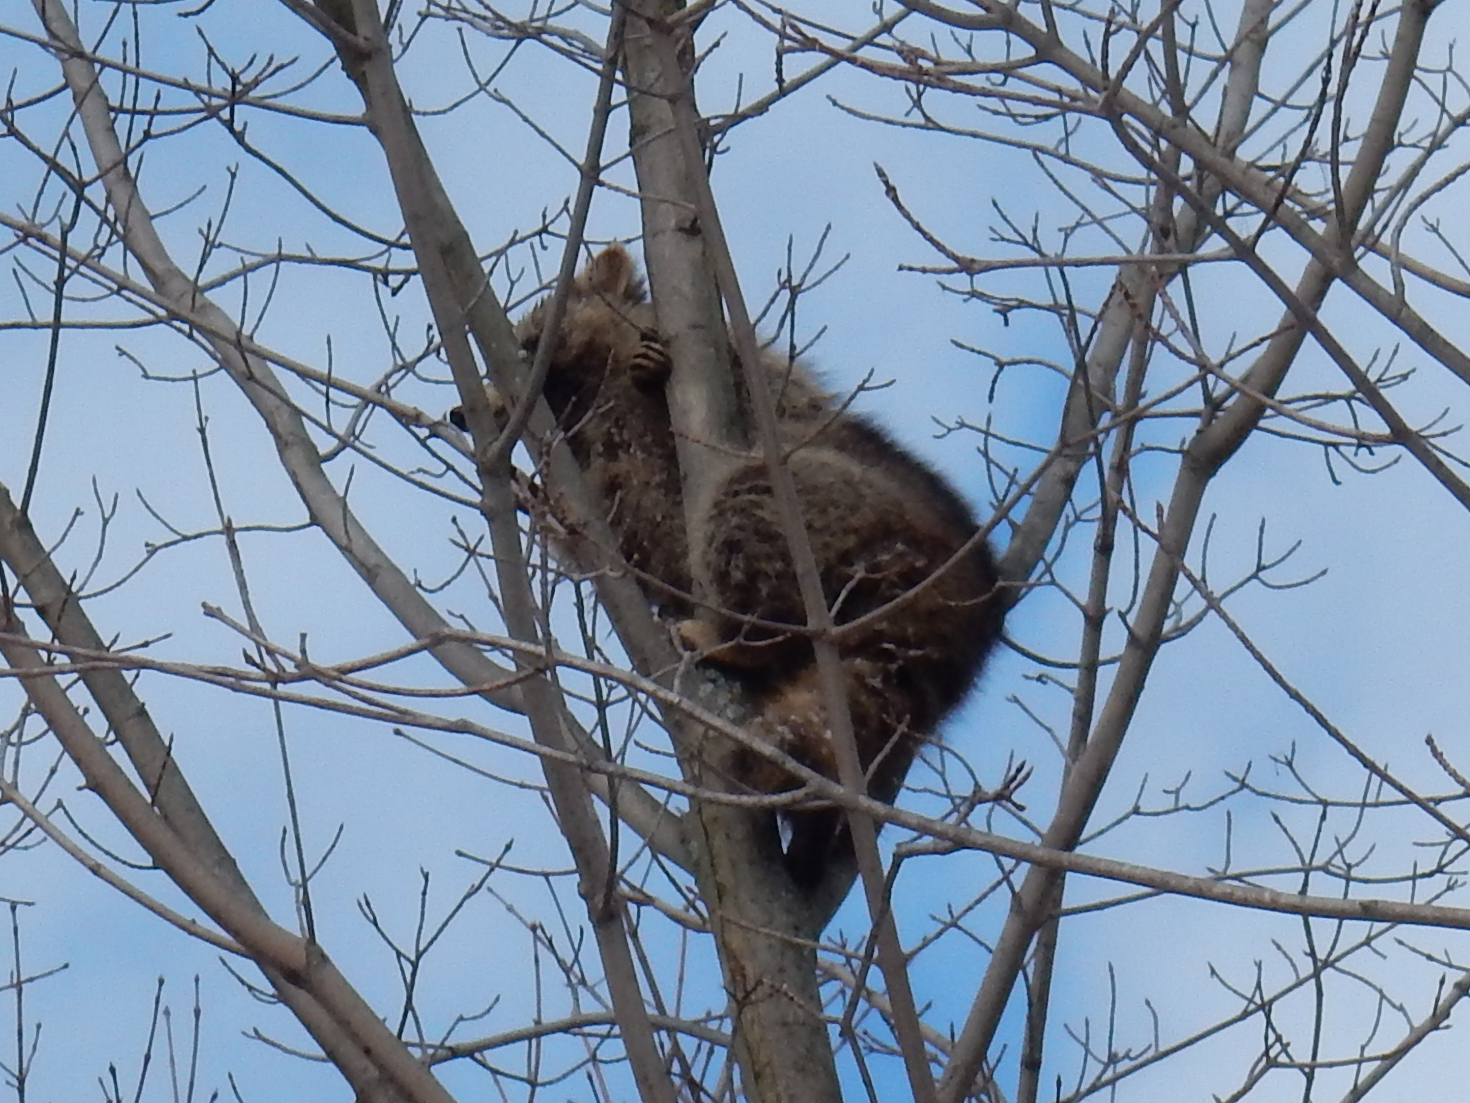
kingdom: Animalia
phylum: Chordata
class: Mammalia
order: Carnivora
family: Procyonidae
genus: Procyon
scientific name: Procyon lotor
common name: Raccoon
